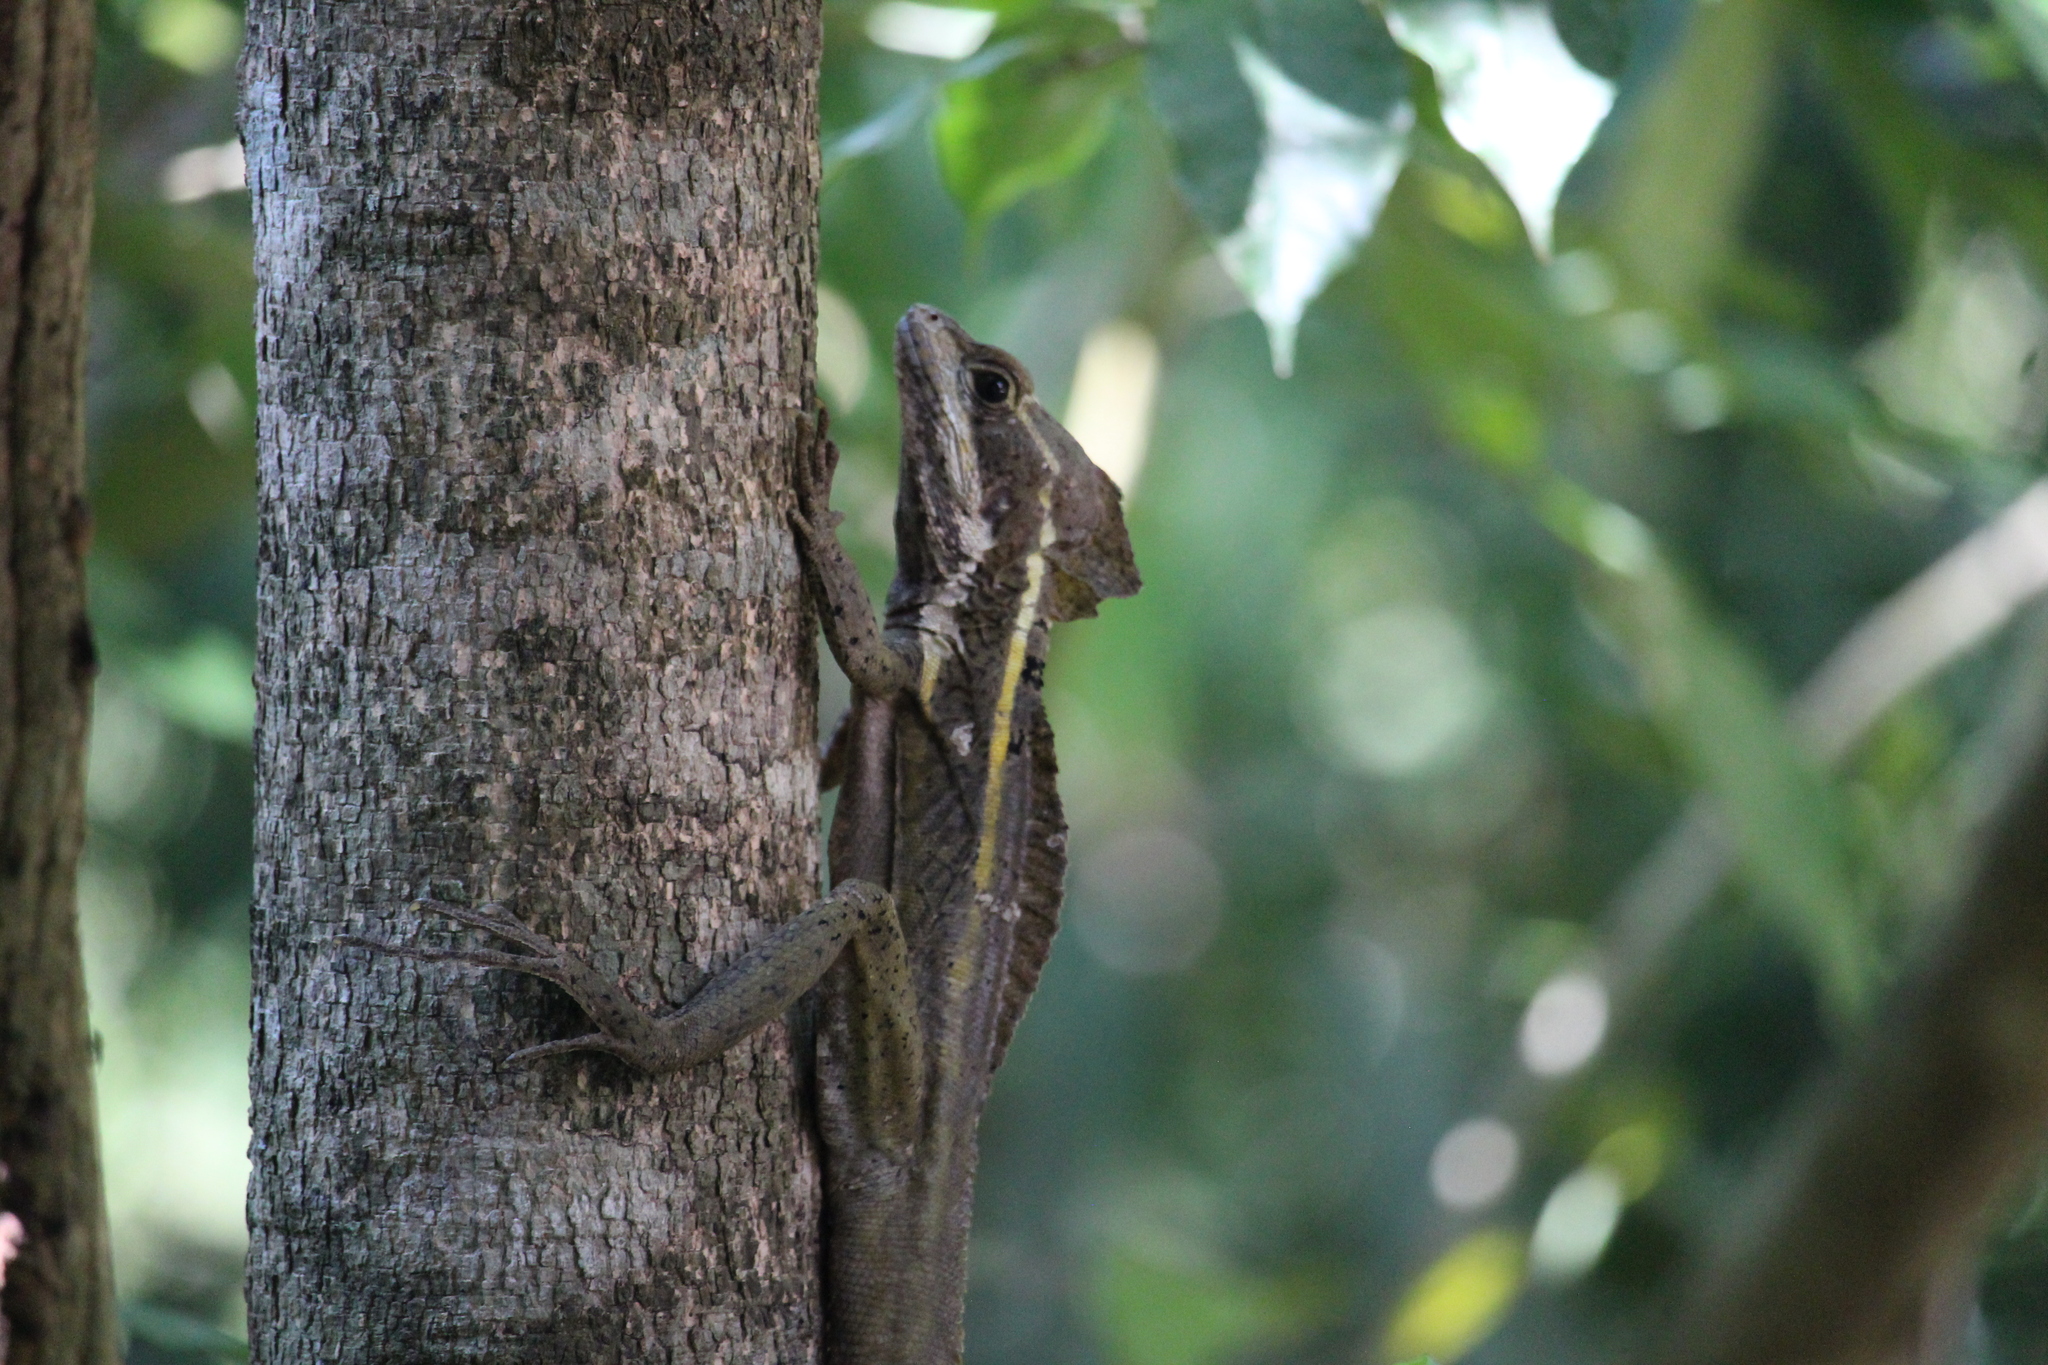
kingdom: Animalia
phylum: Chordata
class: Squamata
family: Corytophanidae
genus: Basiliscus
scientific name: Basiliscus vittatus
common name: Brown basilisk
